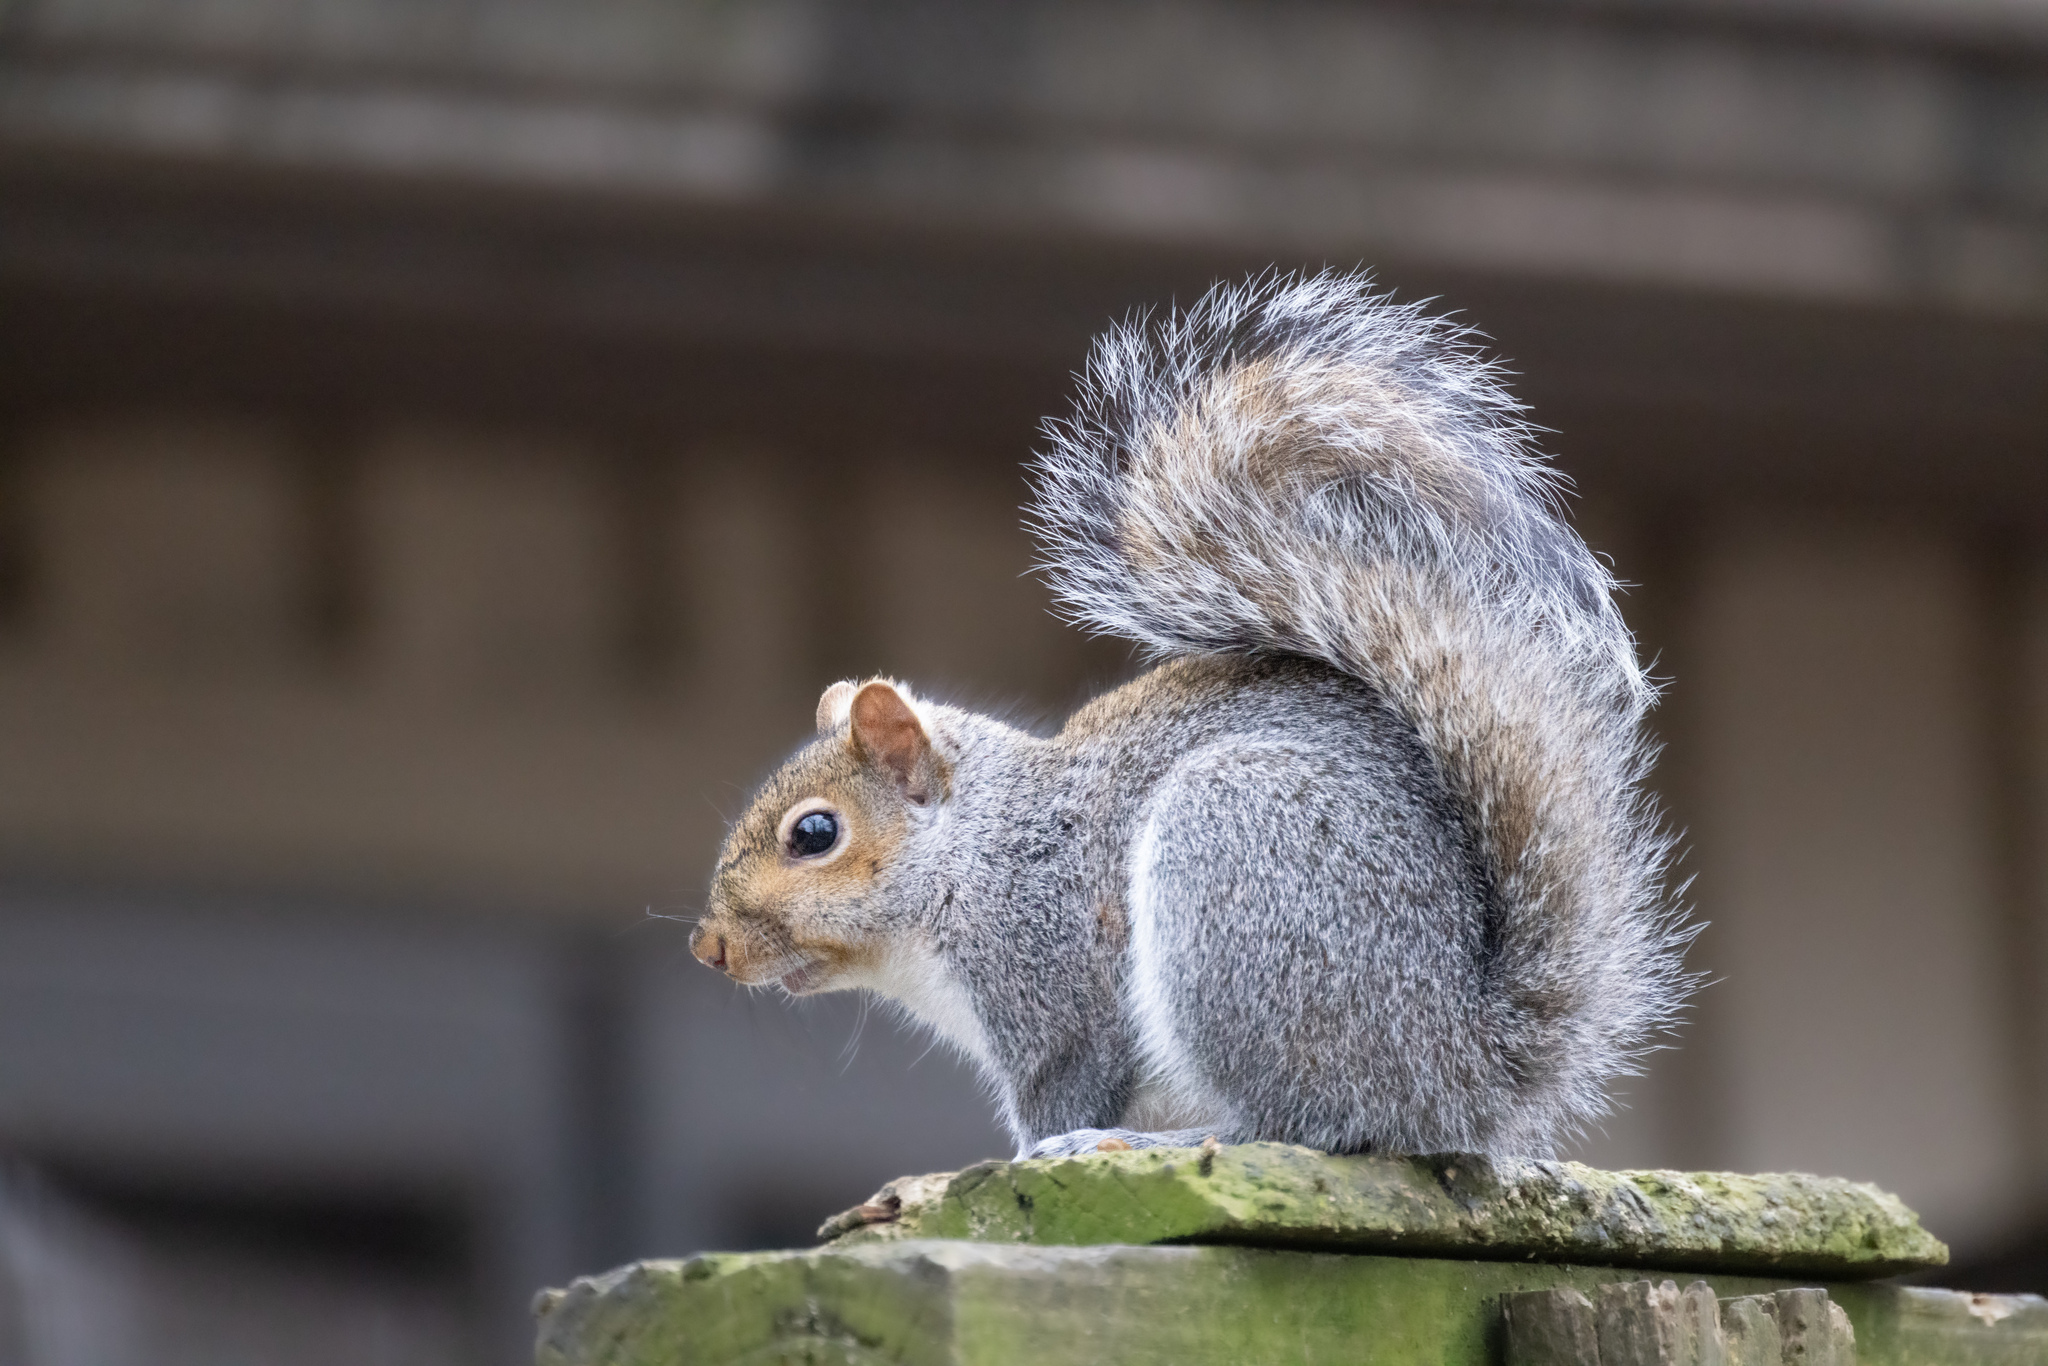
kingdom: Animalia
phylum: Chordata
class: Mammalia
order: Rodentia
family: Sciuridae
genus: Sciurus
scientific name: Sciurus carolinensis
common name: Eastern gray squirrel
